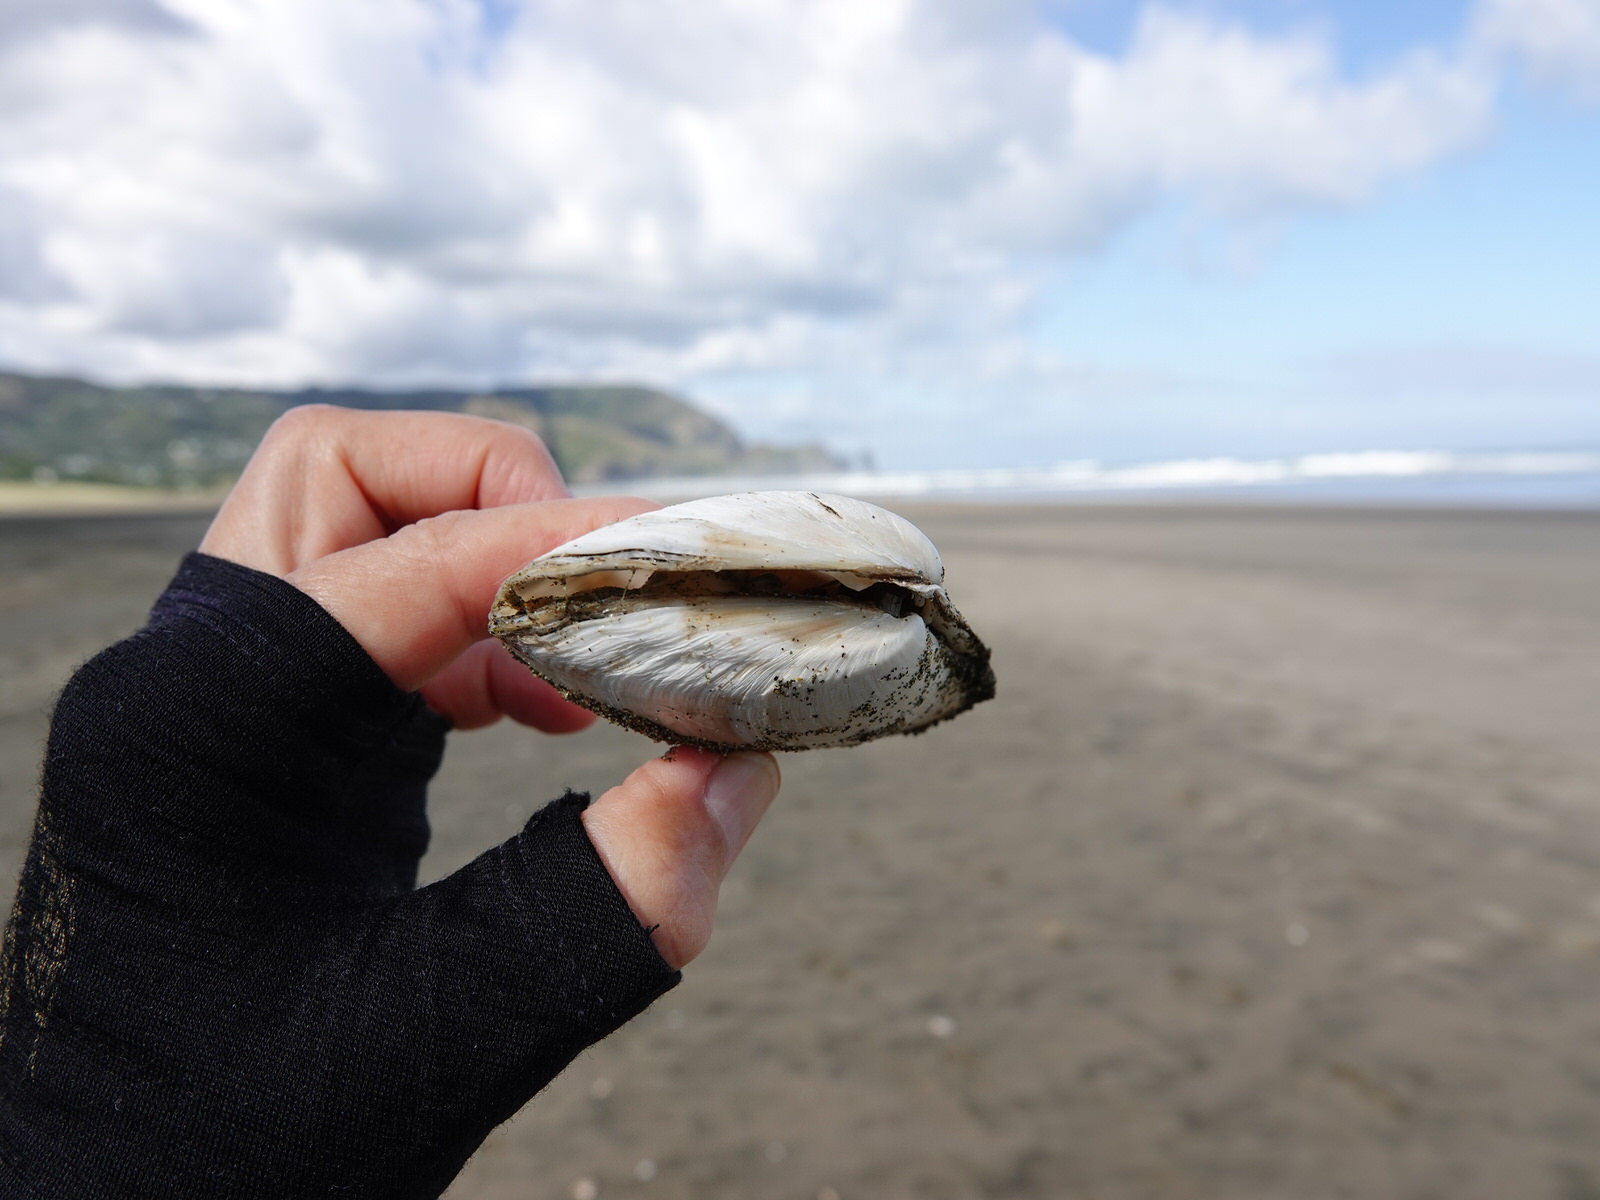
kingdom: Animalia
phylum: Mollusca
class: Bivalvia
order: Venerida
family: Mesodesmatidae
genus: Paphies
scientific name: Paphies ventricosa
